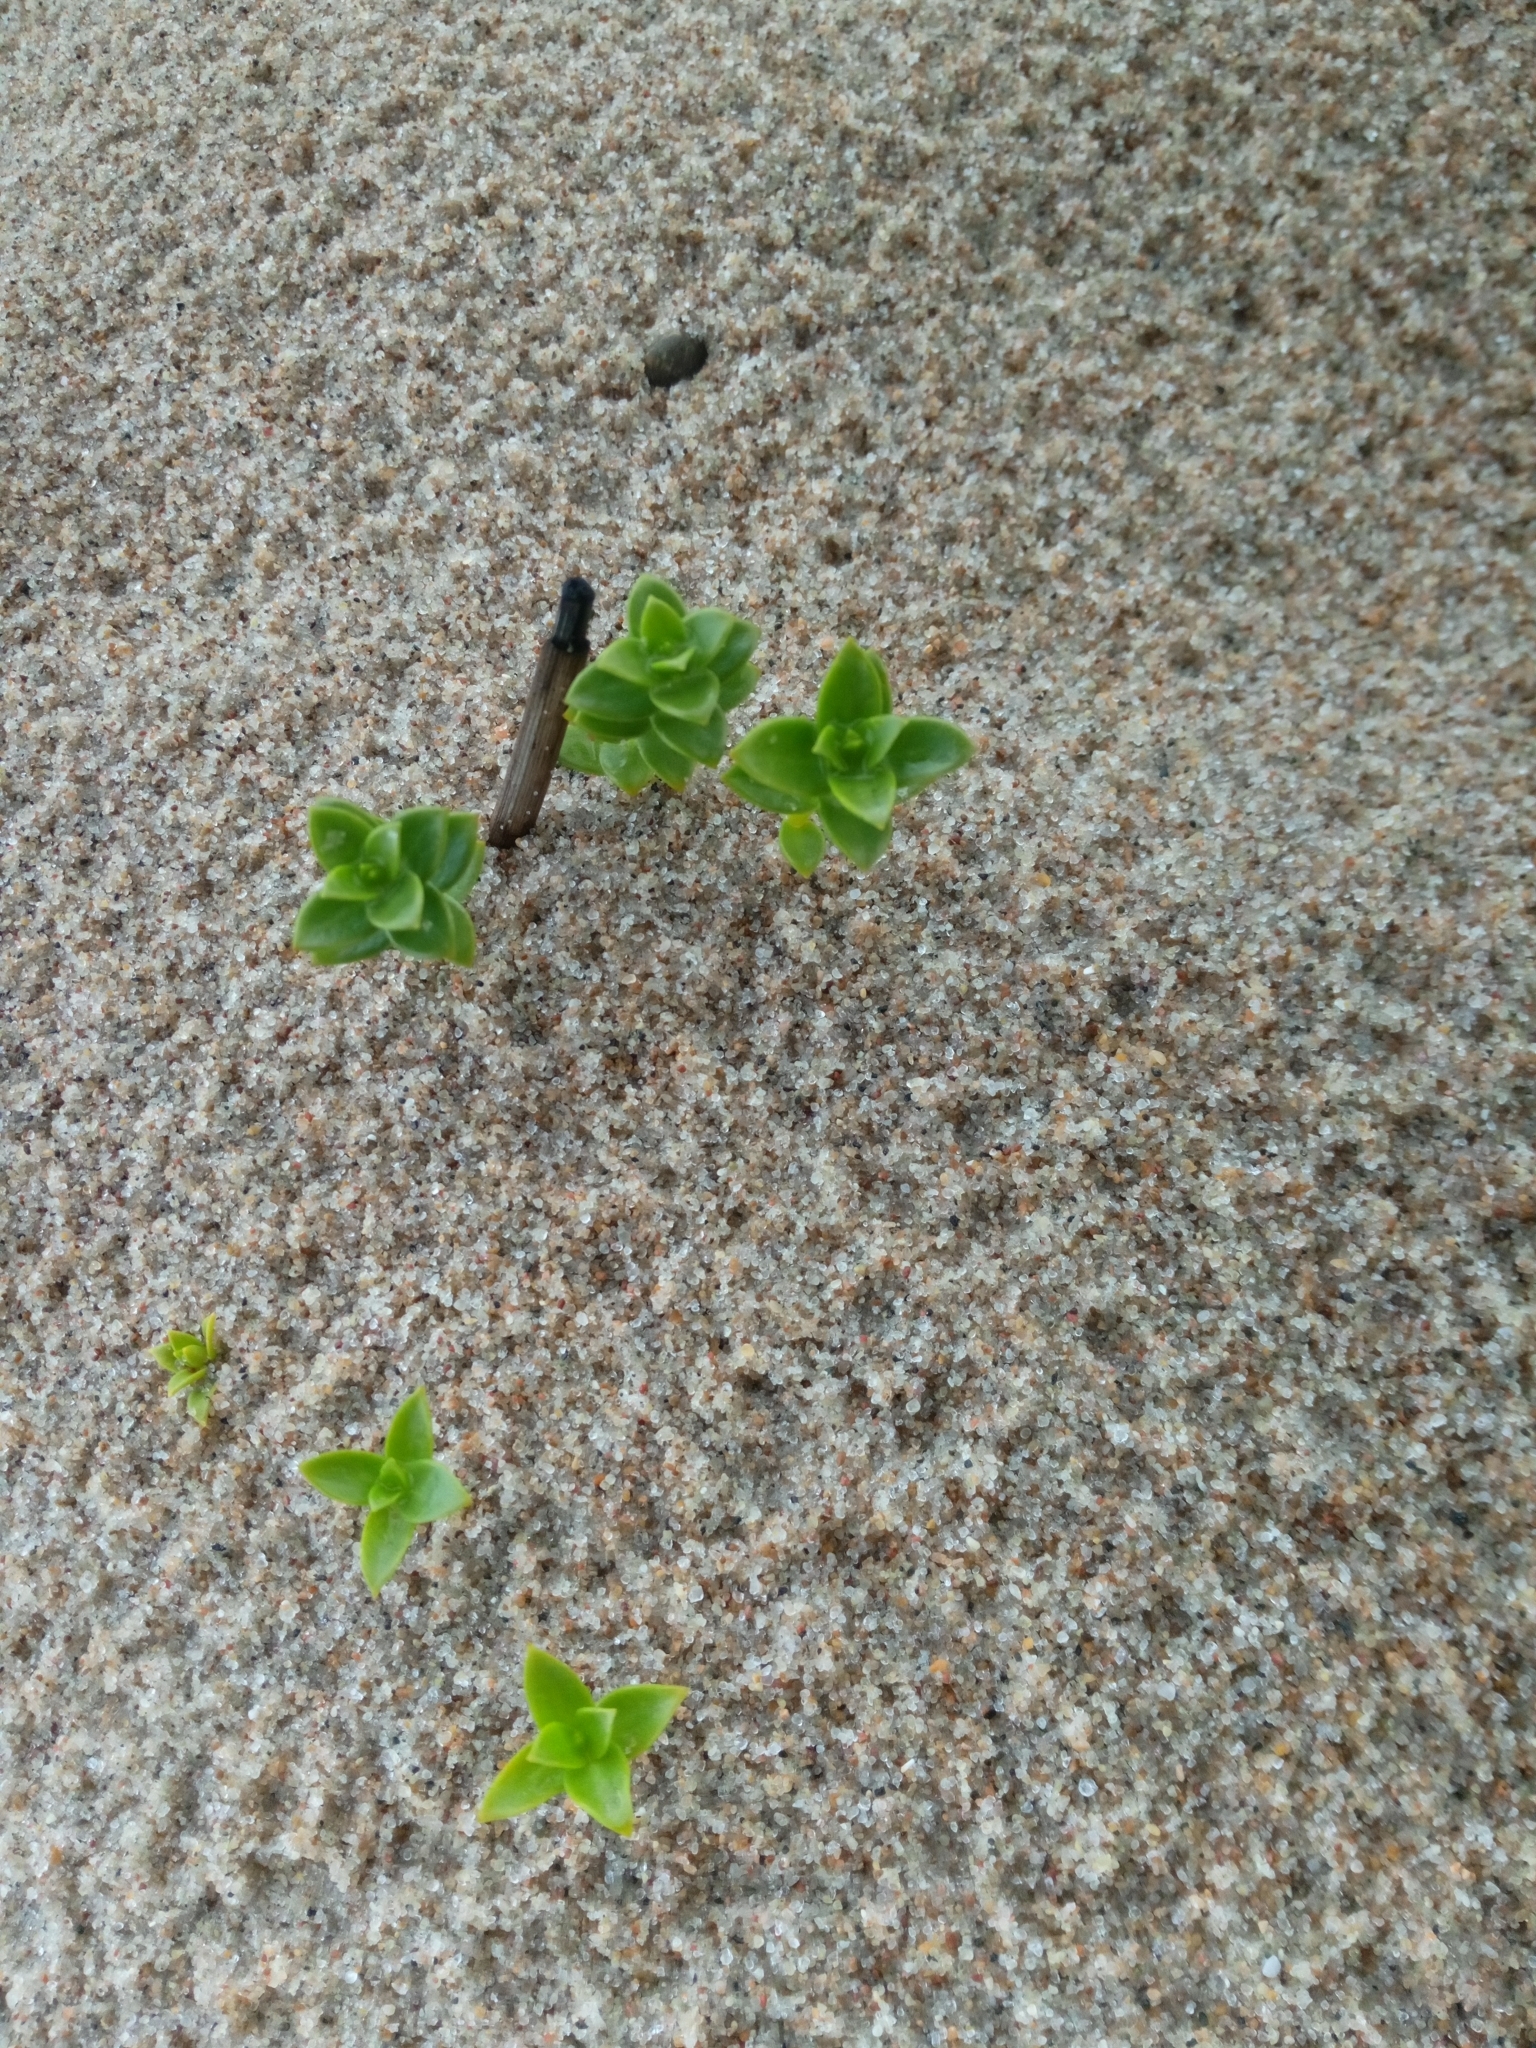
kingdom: Plantae
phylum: Tracheophyta
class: Magnoliopsida
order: Caryophyllales
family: Caryophyllaceae
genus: Honckenya
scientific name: Honckenya peploides
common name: Sea sandwort
